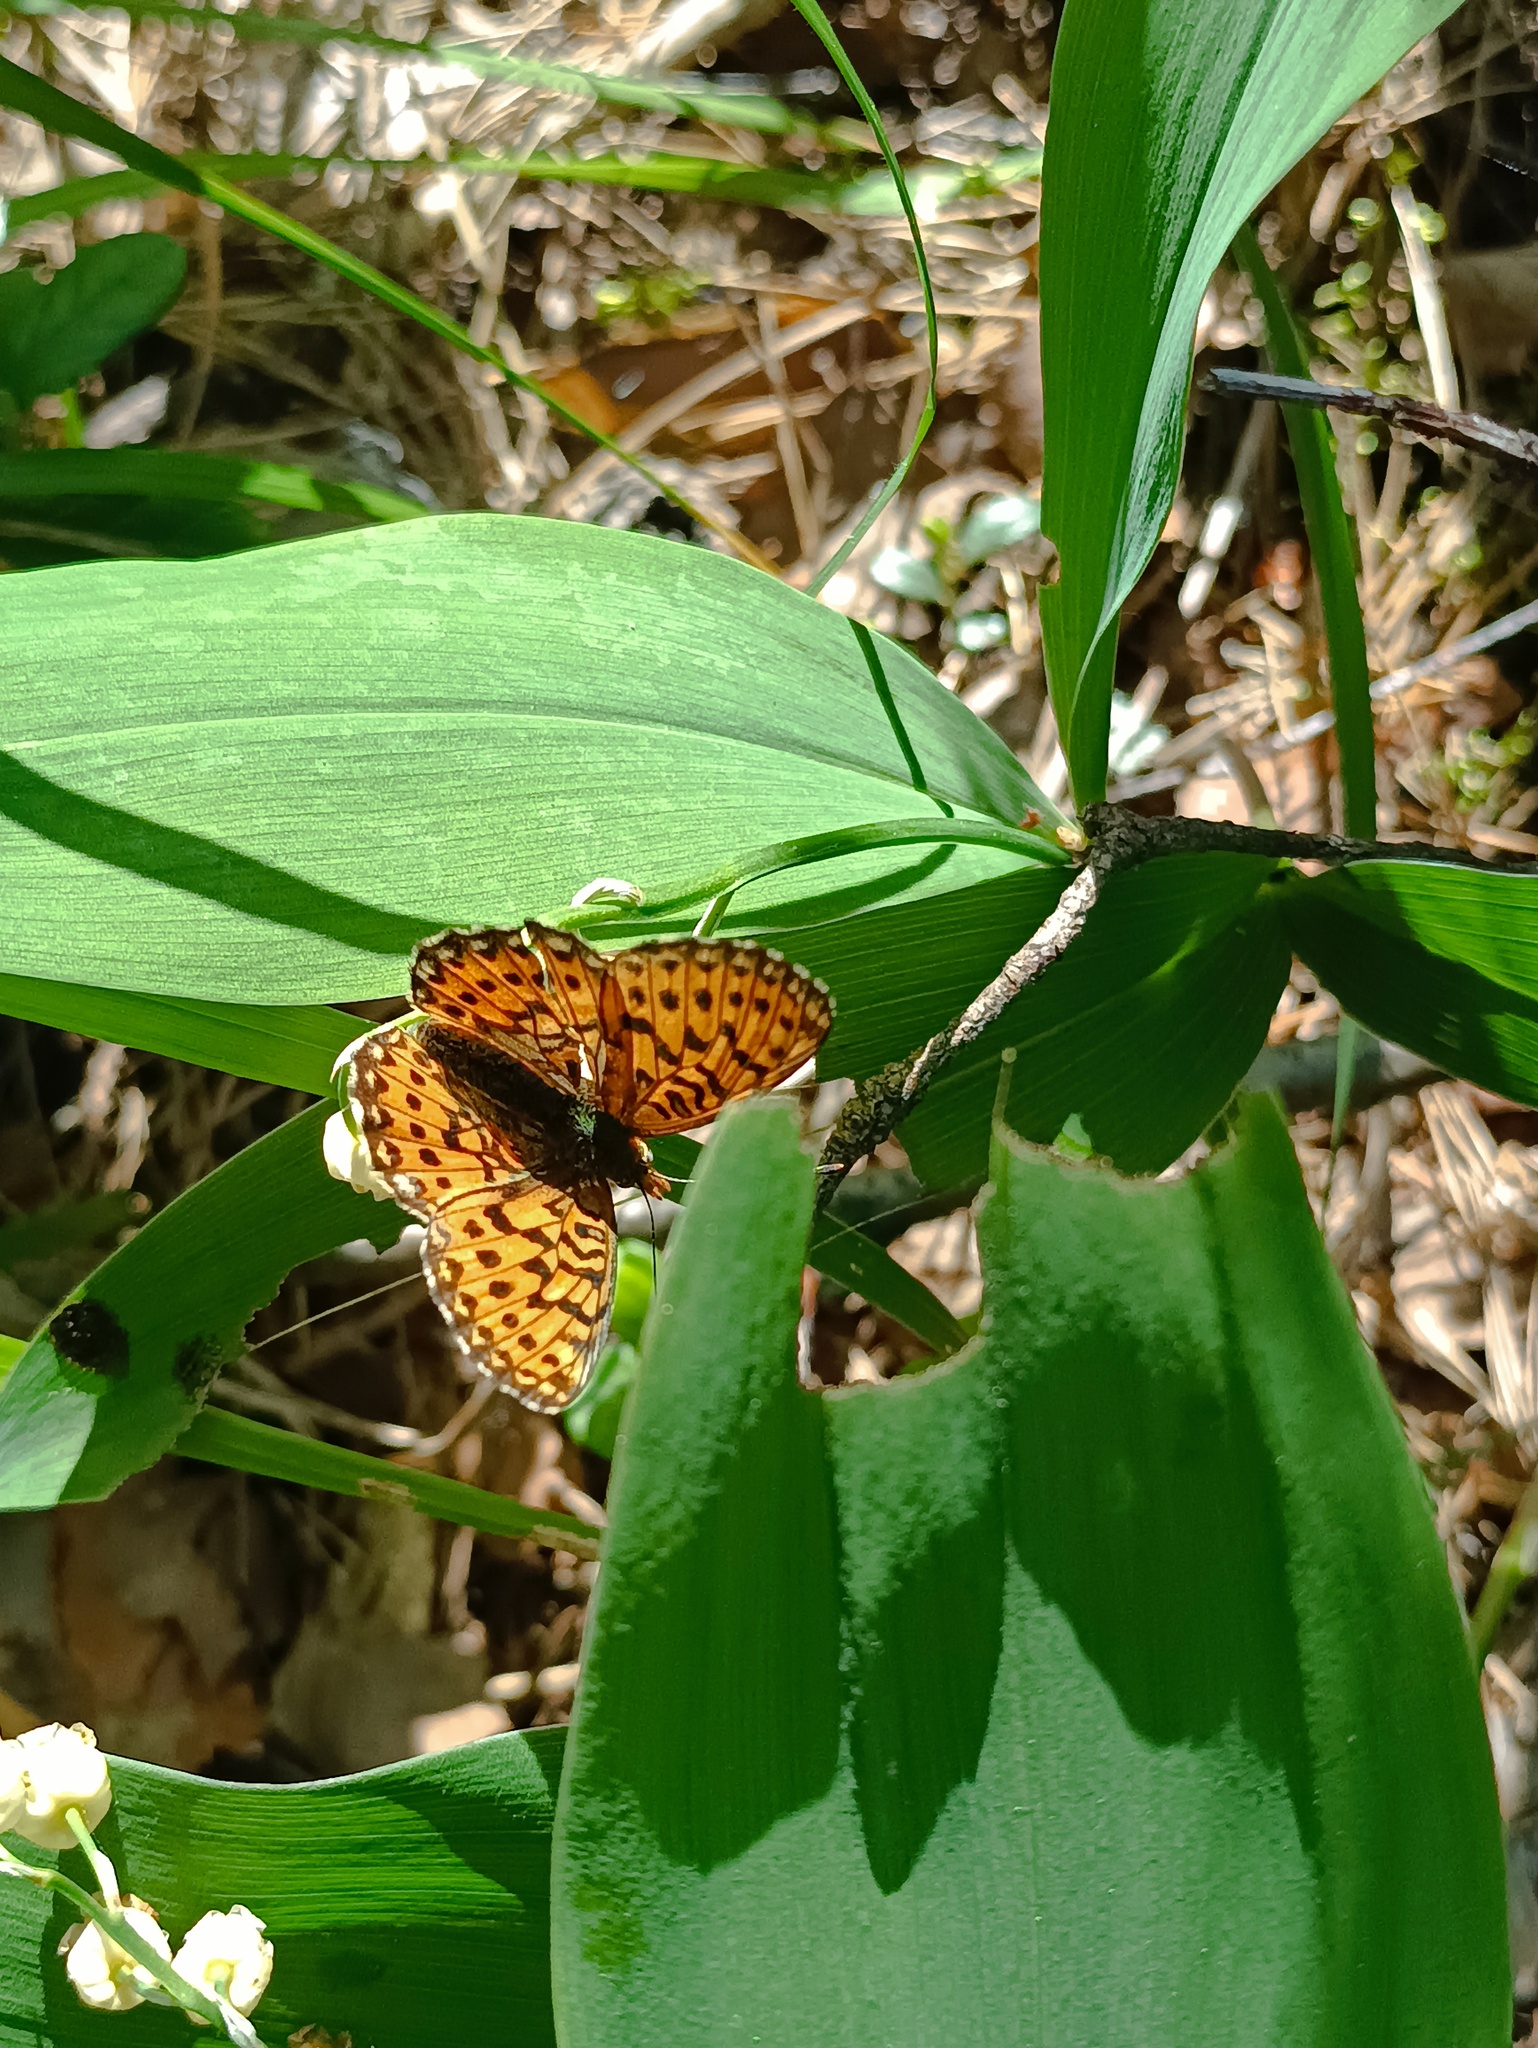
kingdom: Animalia
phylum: Arthropoda
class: Insecta
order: Lepidoptera
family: Nymphalidae
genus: Clossiana
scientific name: Clossiana euphrosyne
